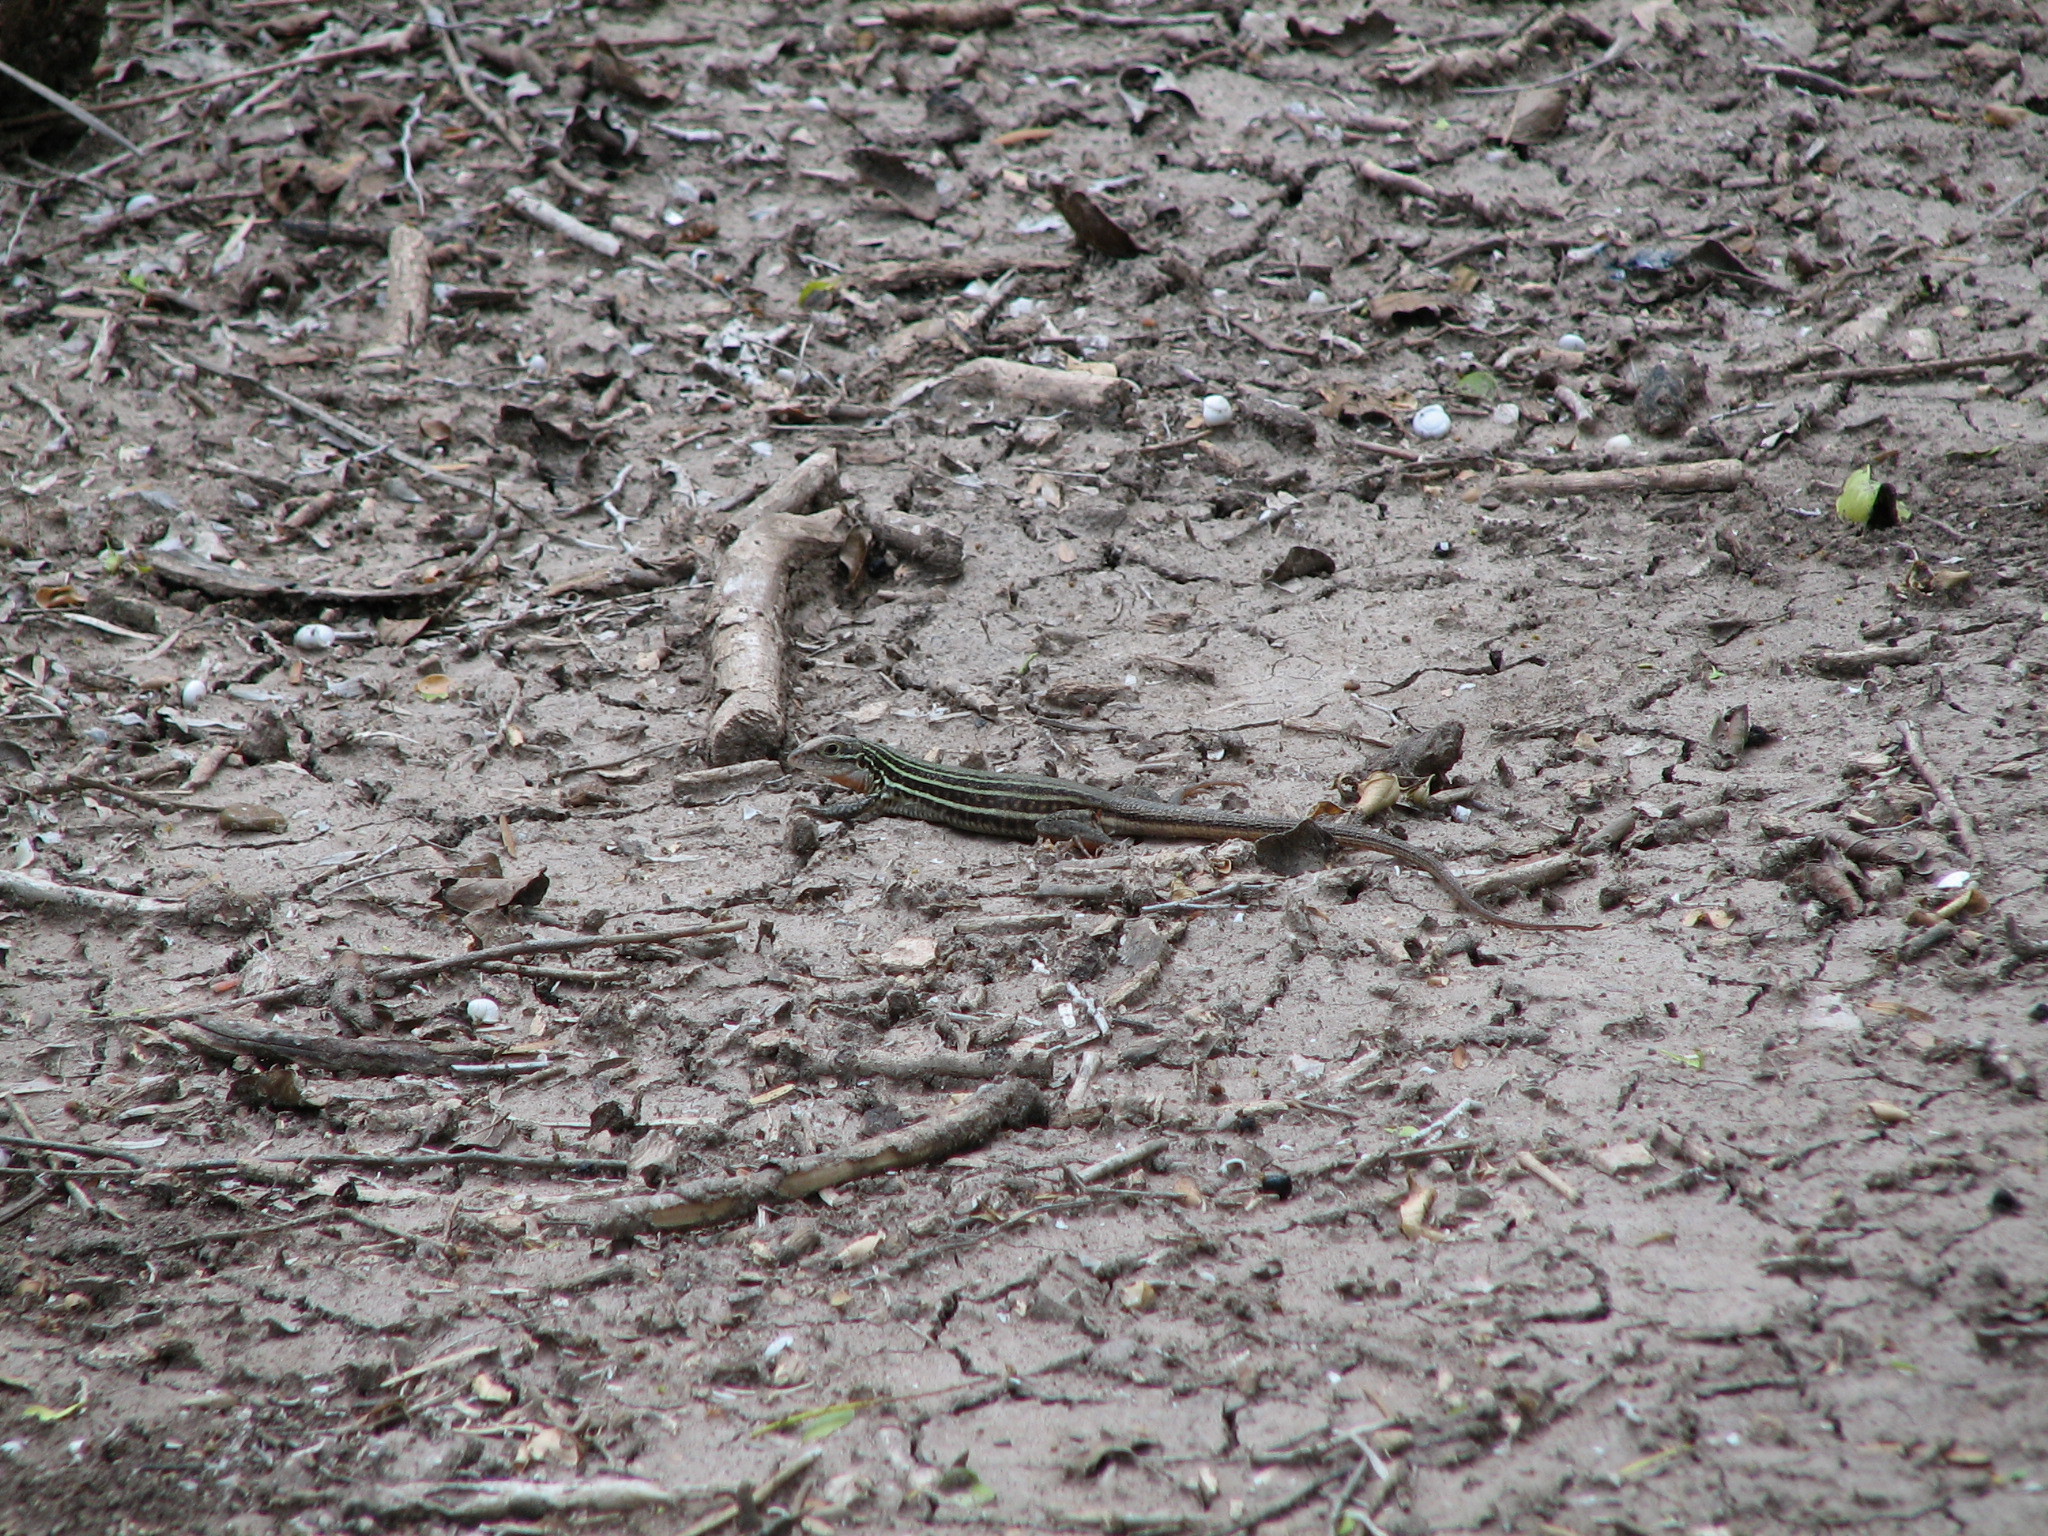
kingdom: Animalia
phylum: Chordata
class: Squamata
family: Teiidae
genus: Aspidoscelis
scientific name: Aspidoscelis gularis
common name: Eastern spotted whiptail
